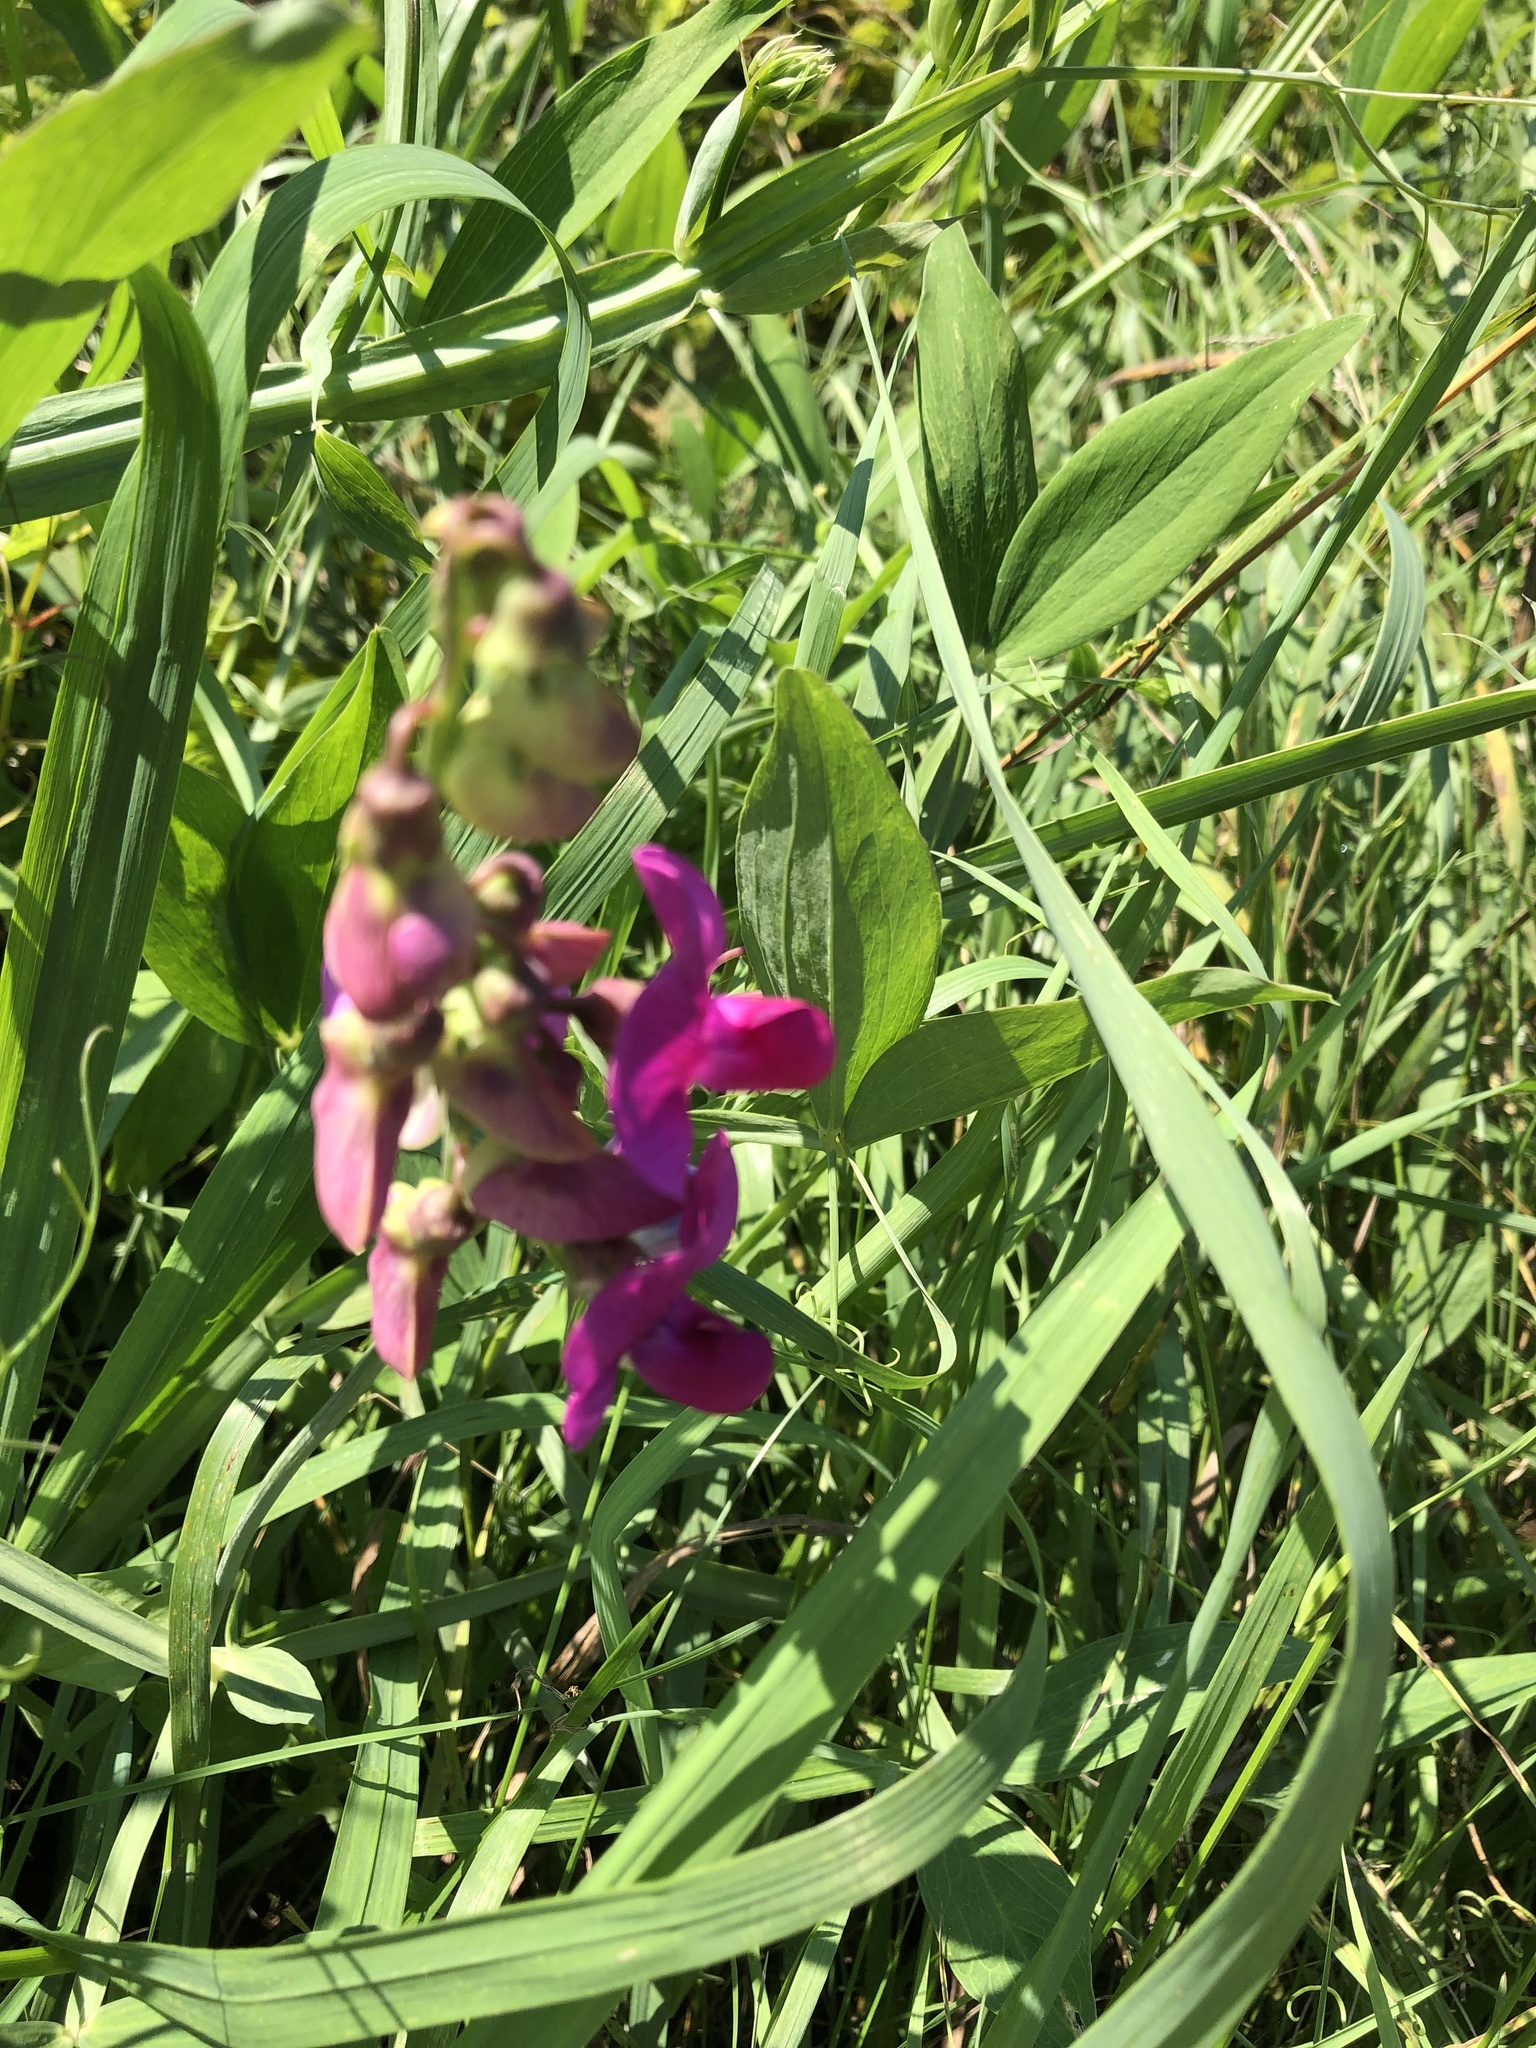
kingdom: Plantae
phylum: Tracheophyta
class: Magnoliopsida
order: Fabales
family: Fabaceae
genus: Lathyrus
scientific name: Lathyrus latifolius
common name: Perennial pea
